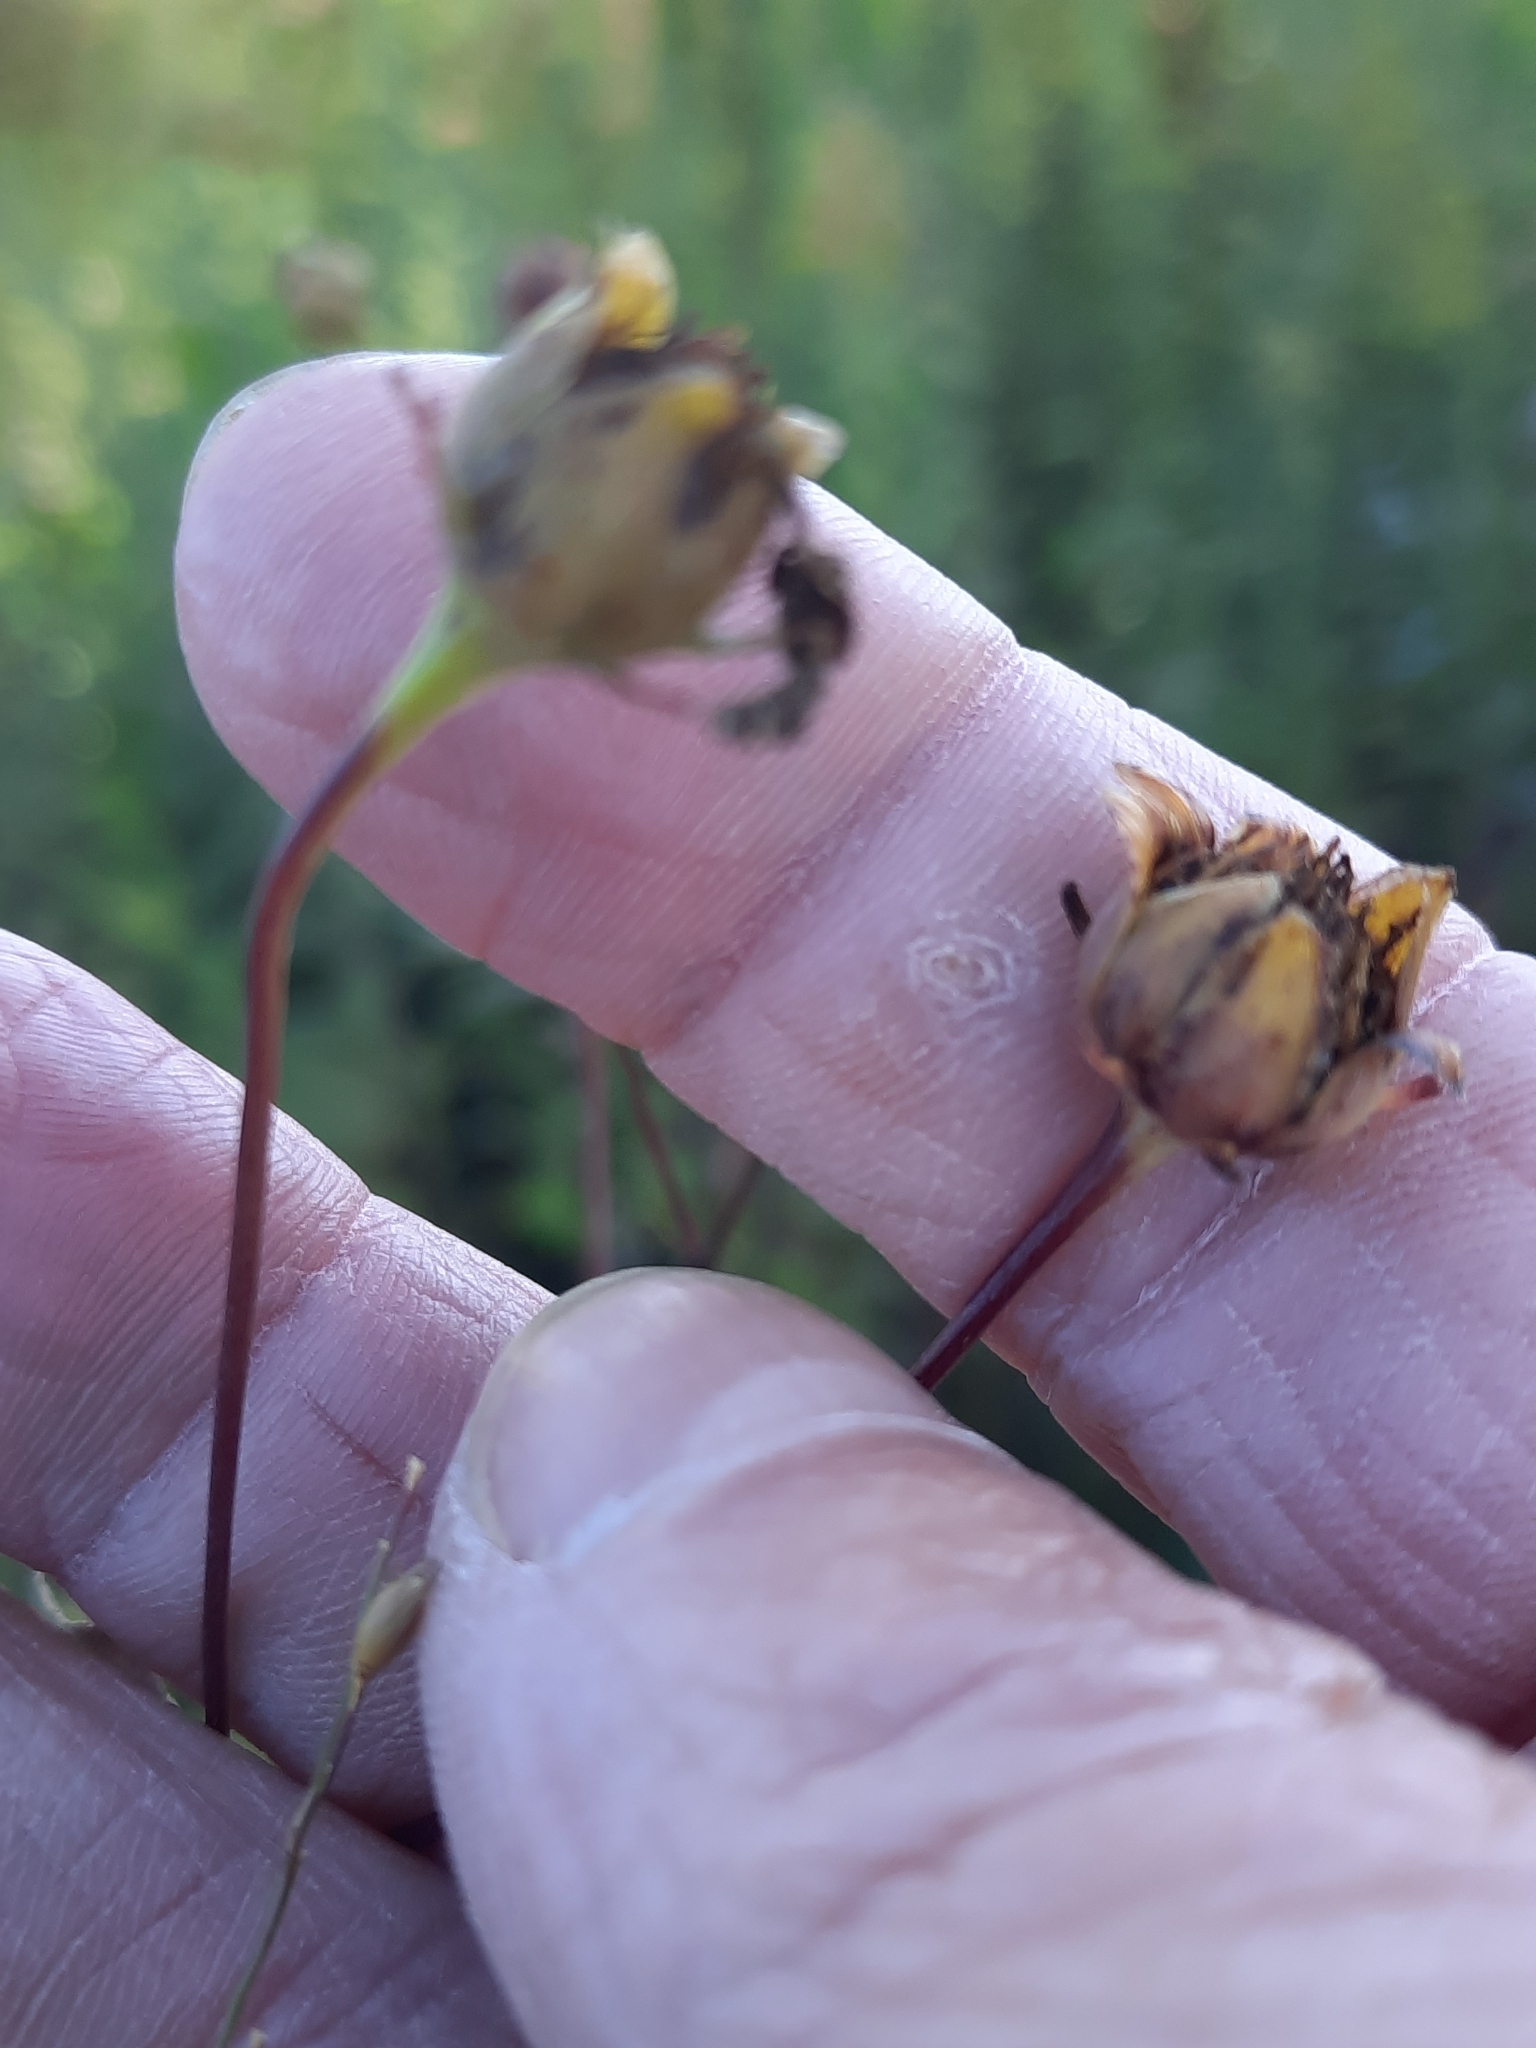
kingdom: Plantae
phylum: Tracheophyta
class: Magnoliopsida
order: Asterales
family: Asteraceae
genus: Coreopsis
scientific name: Coreopsis tripteris
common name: Tall coreopsis
